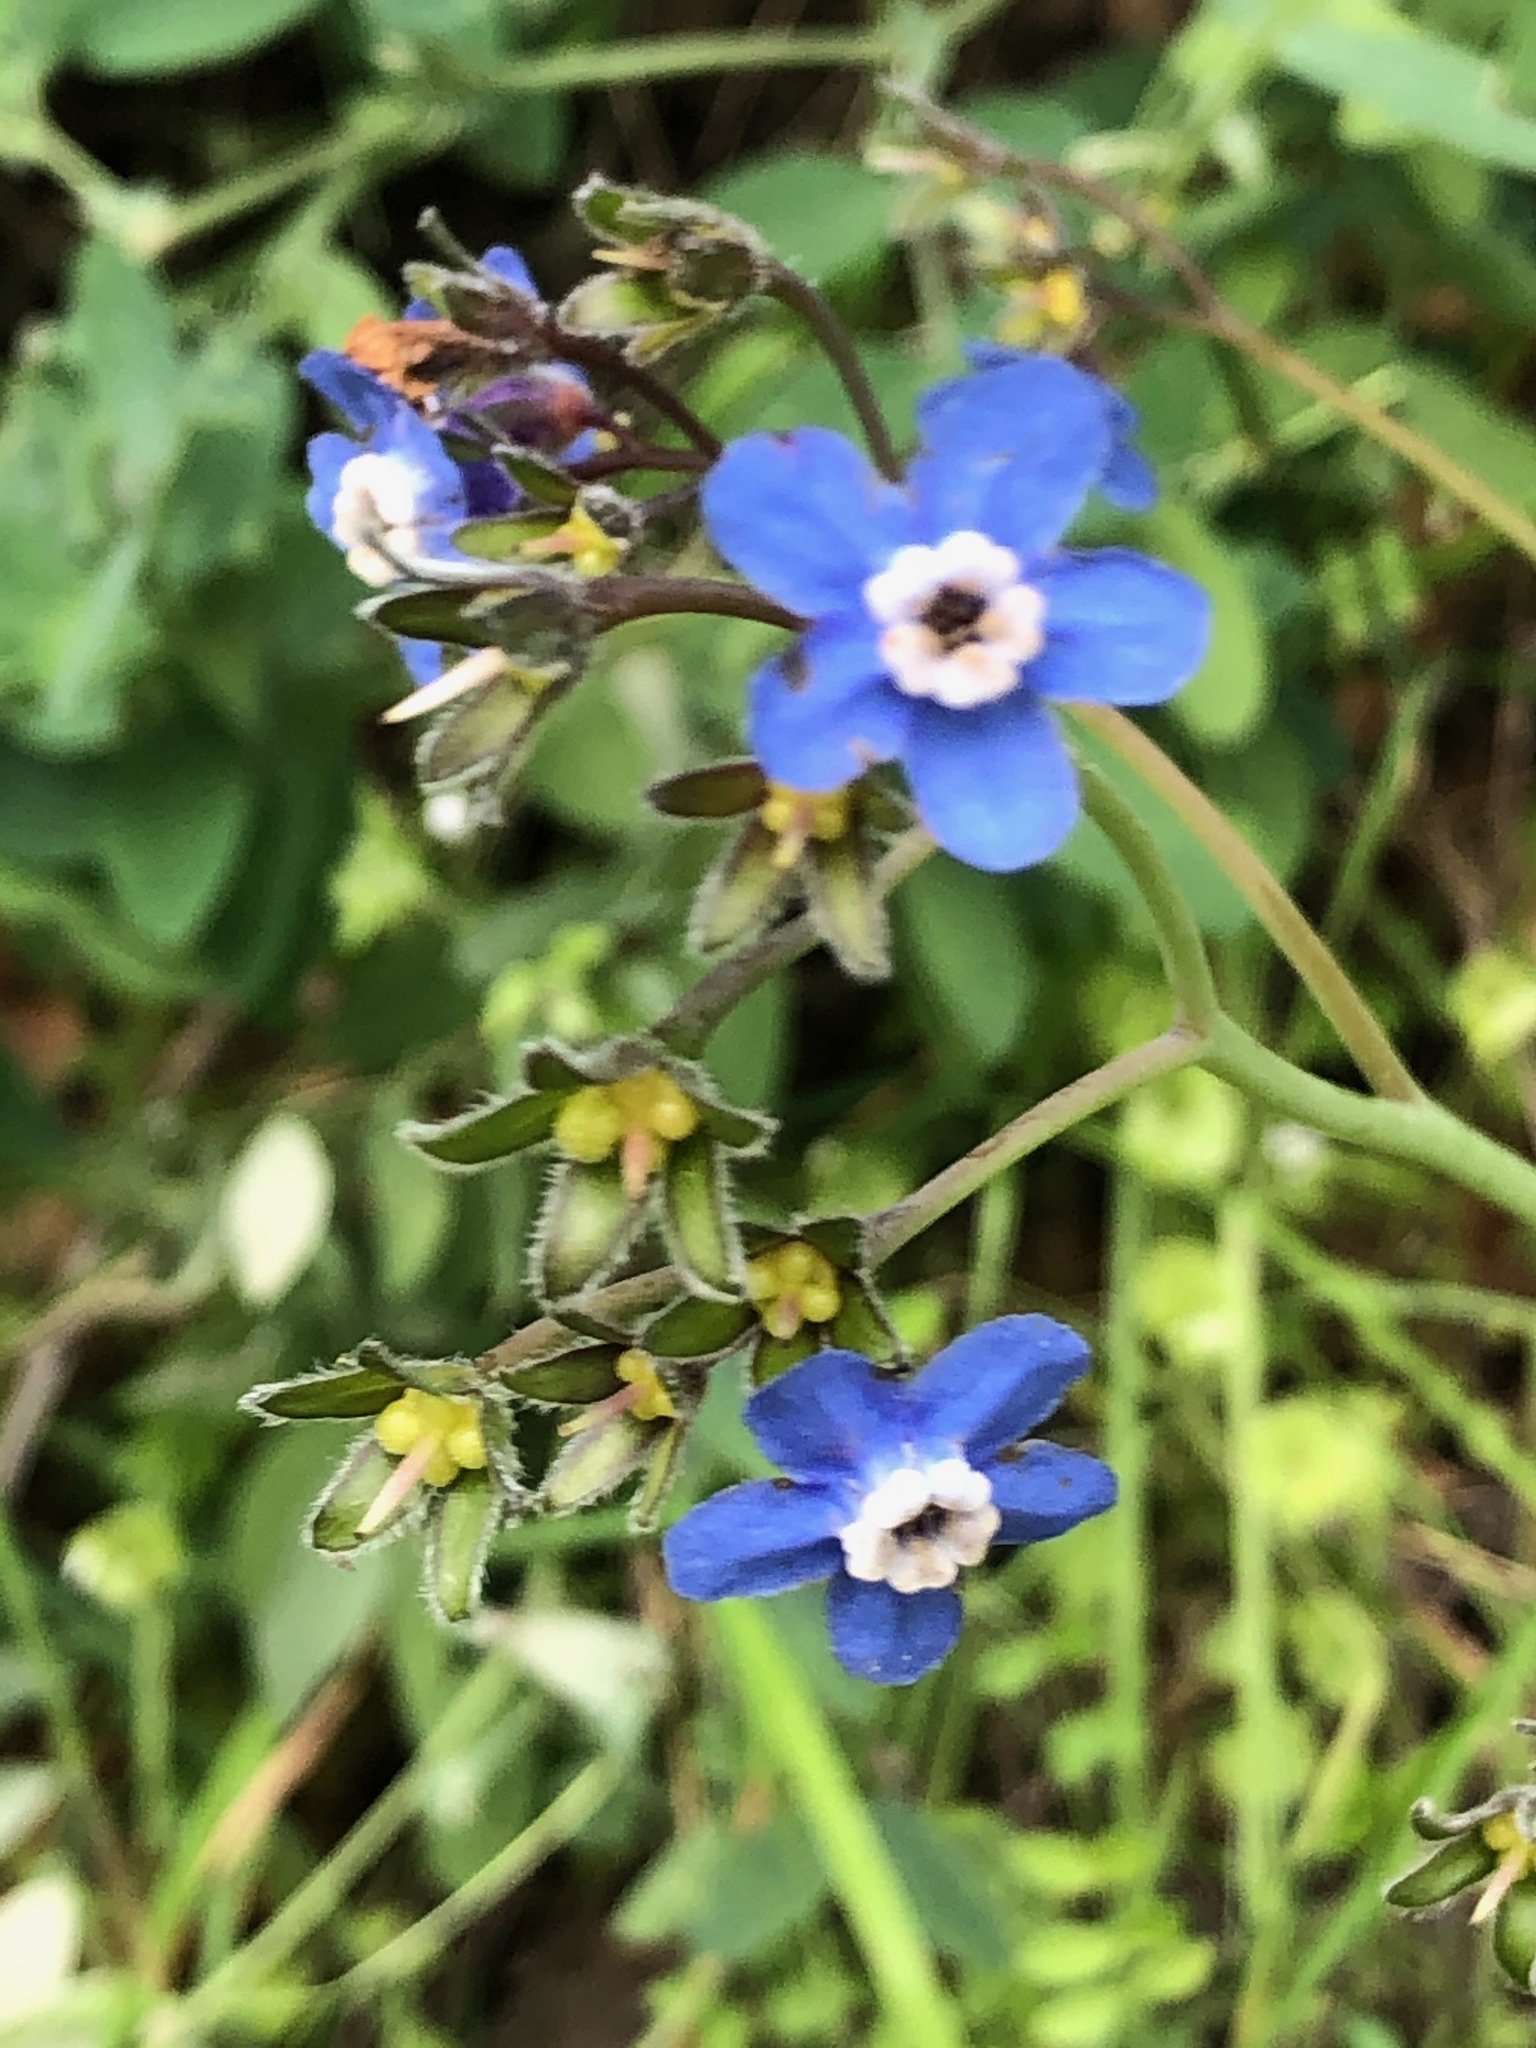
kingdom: Plantae
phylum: Tracheophyta
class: Magnoliopsida
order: Boraginales
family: Boraginaceae
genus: Adelinia
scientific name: Adelinia grande
